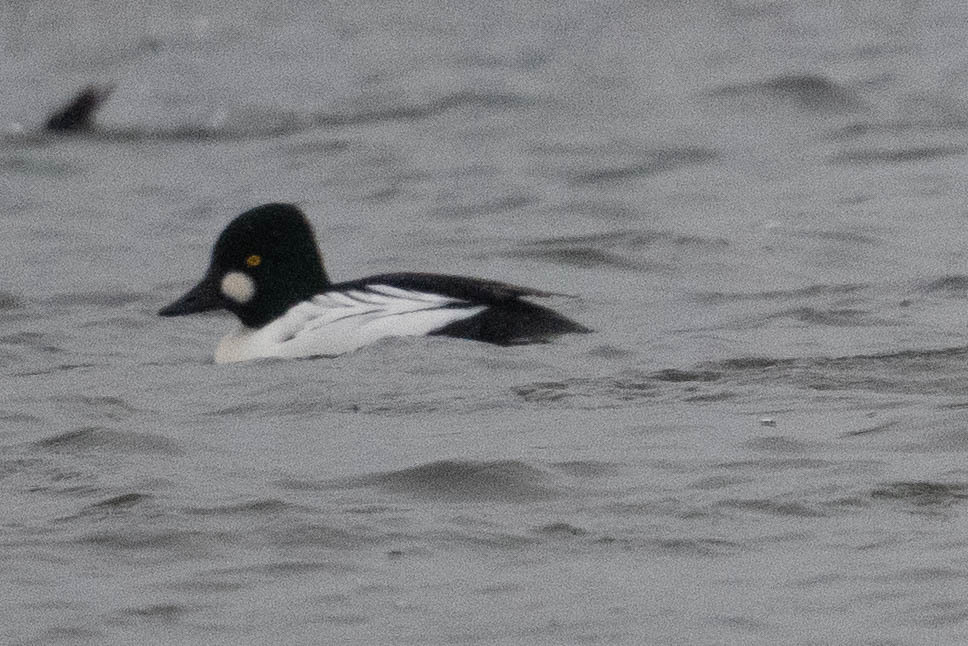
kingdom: Animalia
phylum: Chordata
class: Aves
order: Anseriformes
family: Anatidae
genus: Bucephala
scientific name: Bucephala clangula
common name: Common goldeneye
